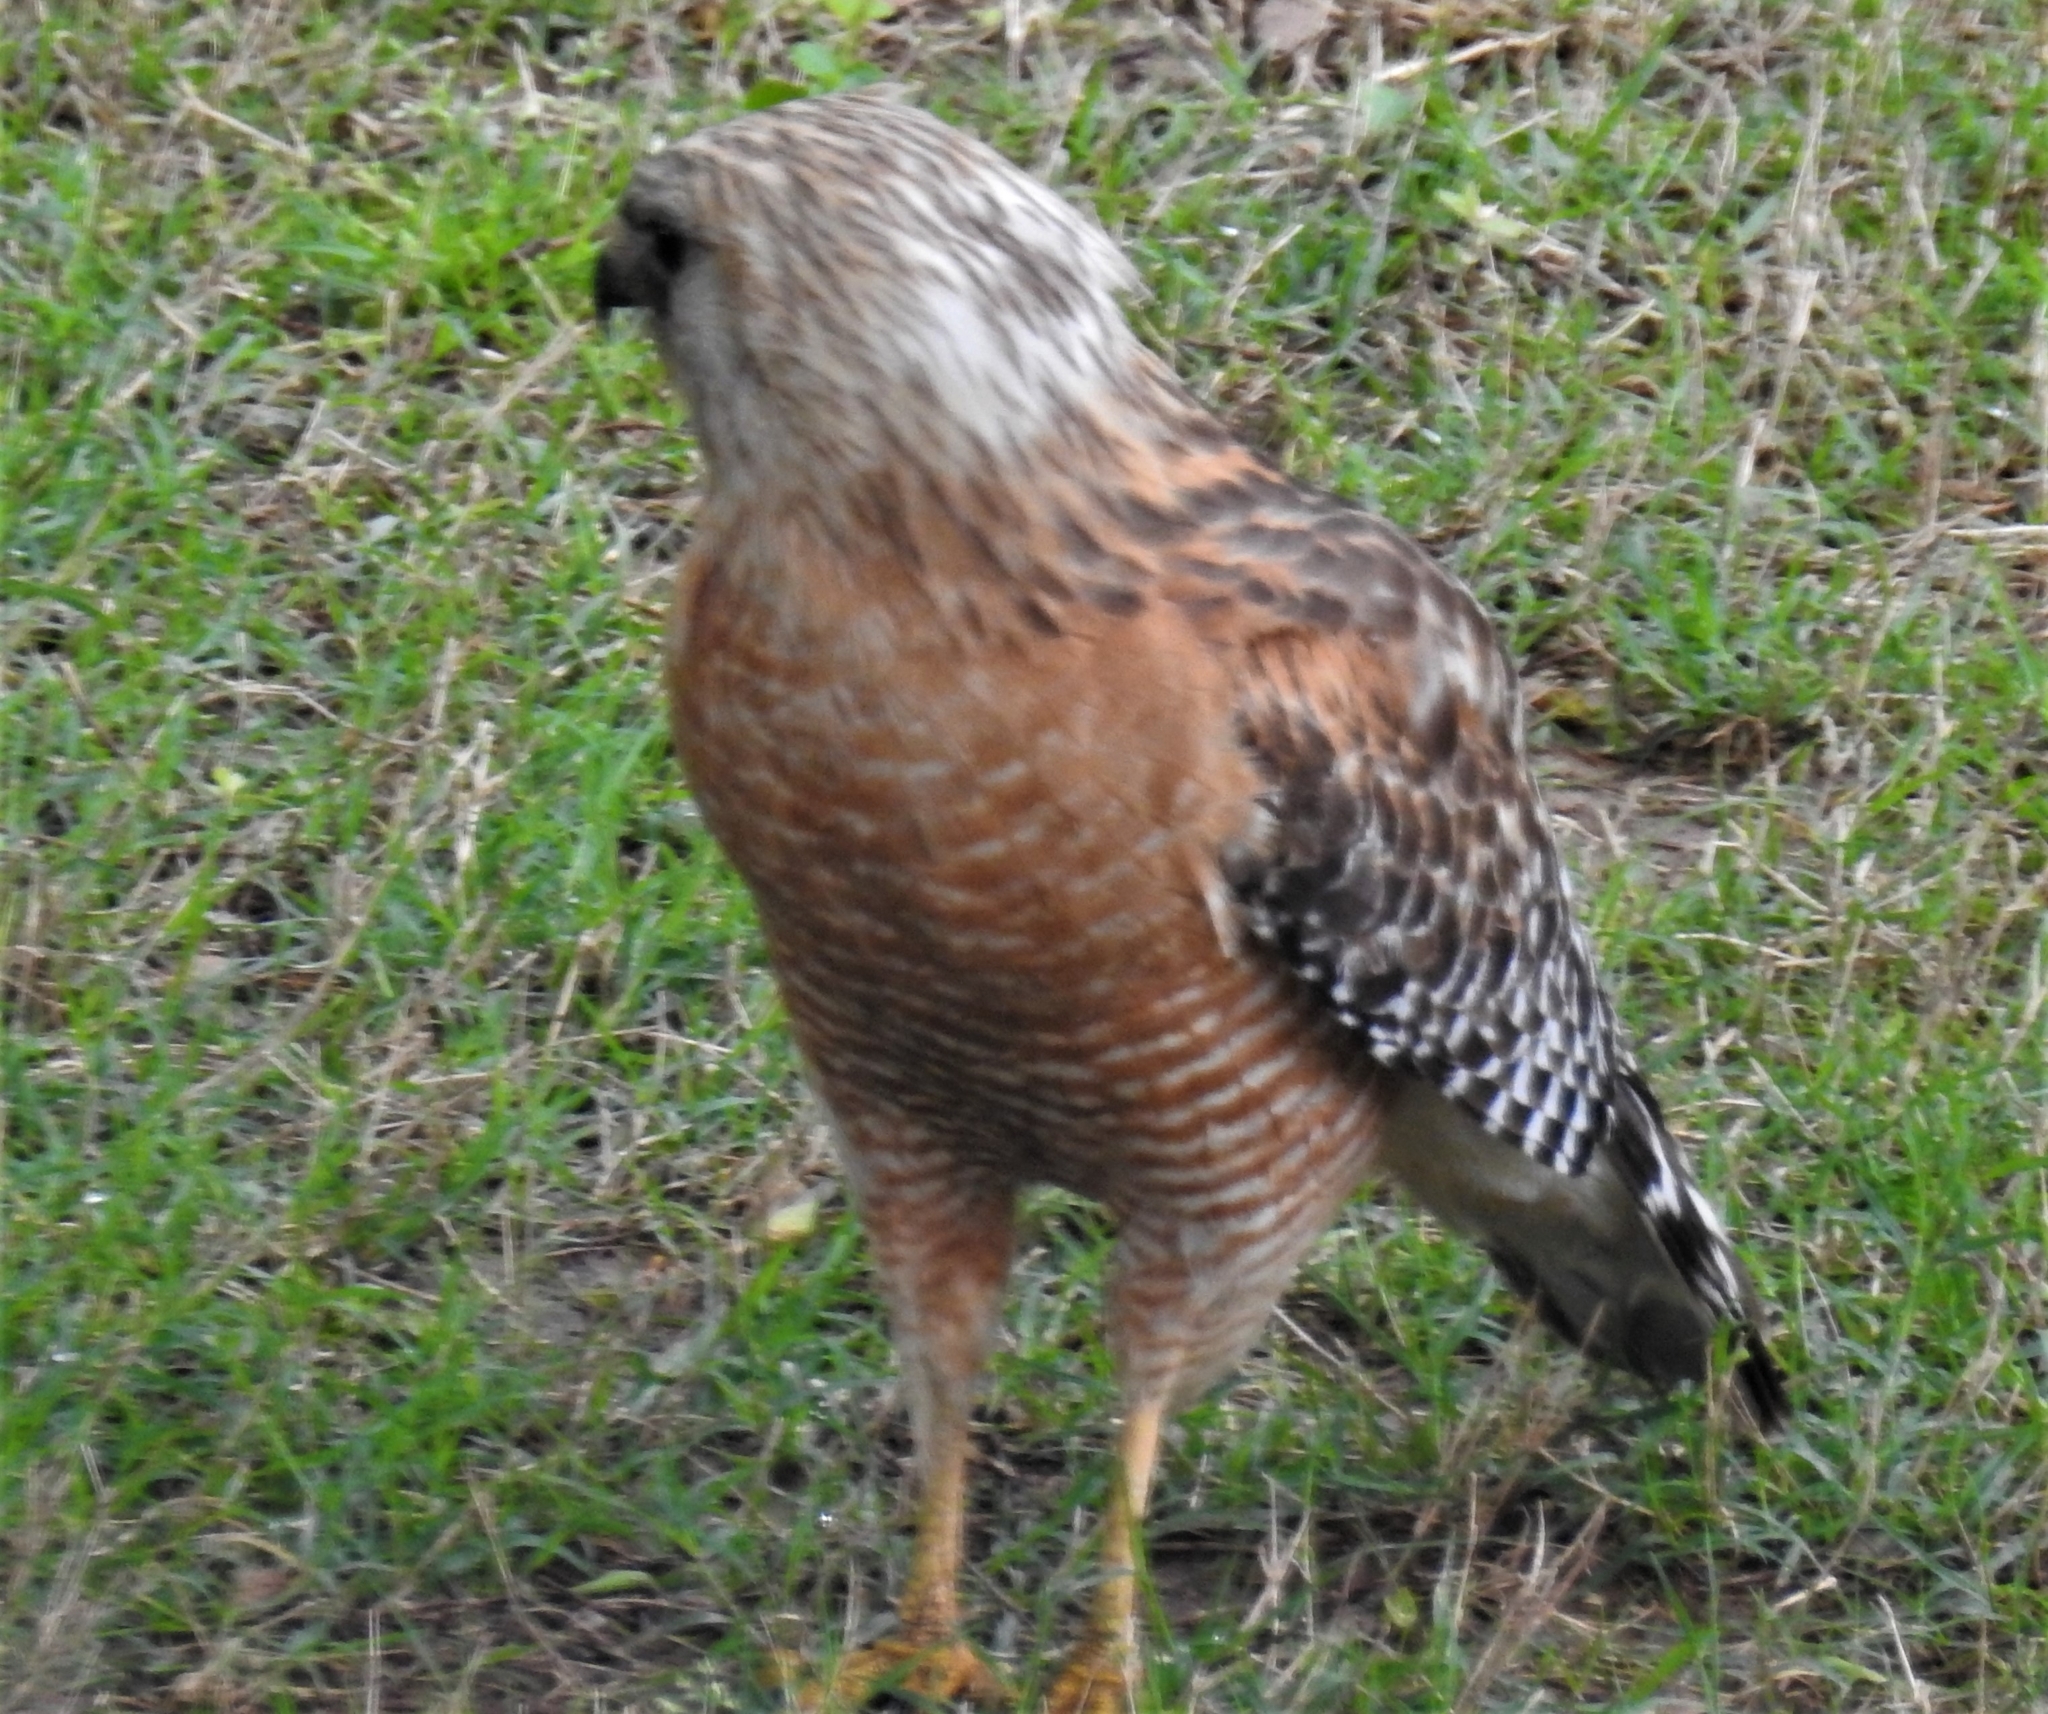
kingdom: Animalia
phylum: Chordata
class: Aves
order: Accipitriformes
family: Accipitridae
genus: Buteo
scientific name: Buteo lineatus
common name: Red-shouldered hawk
